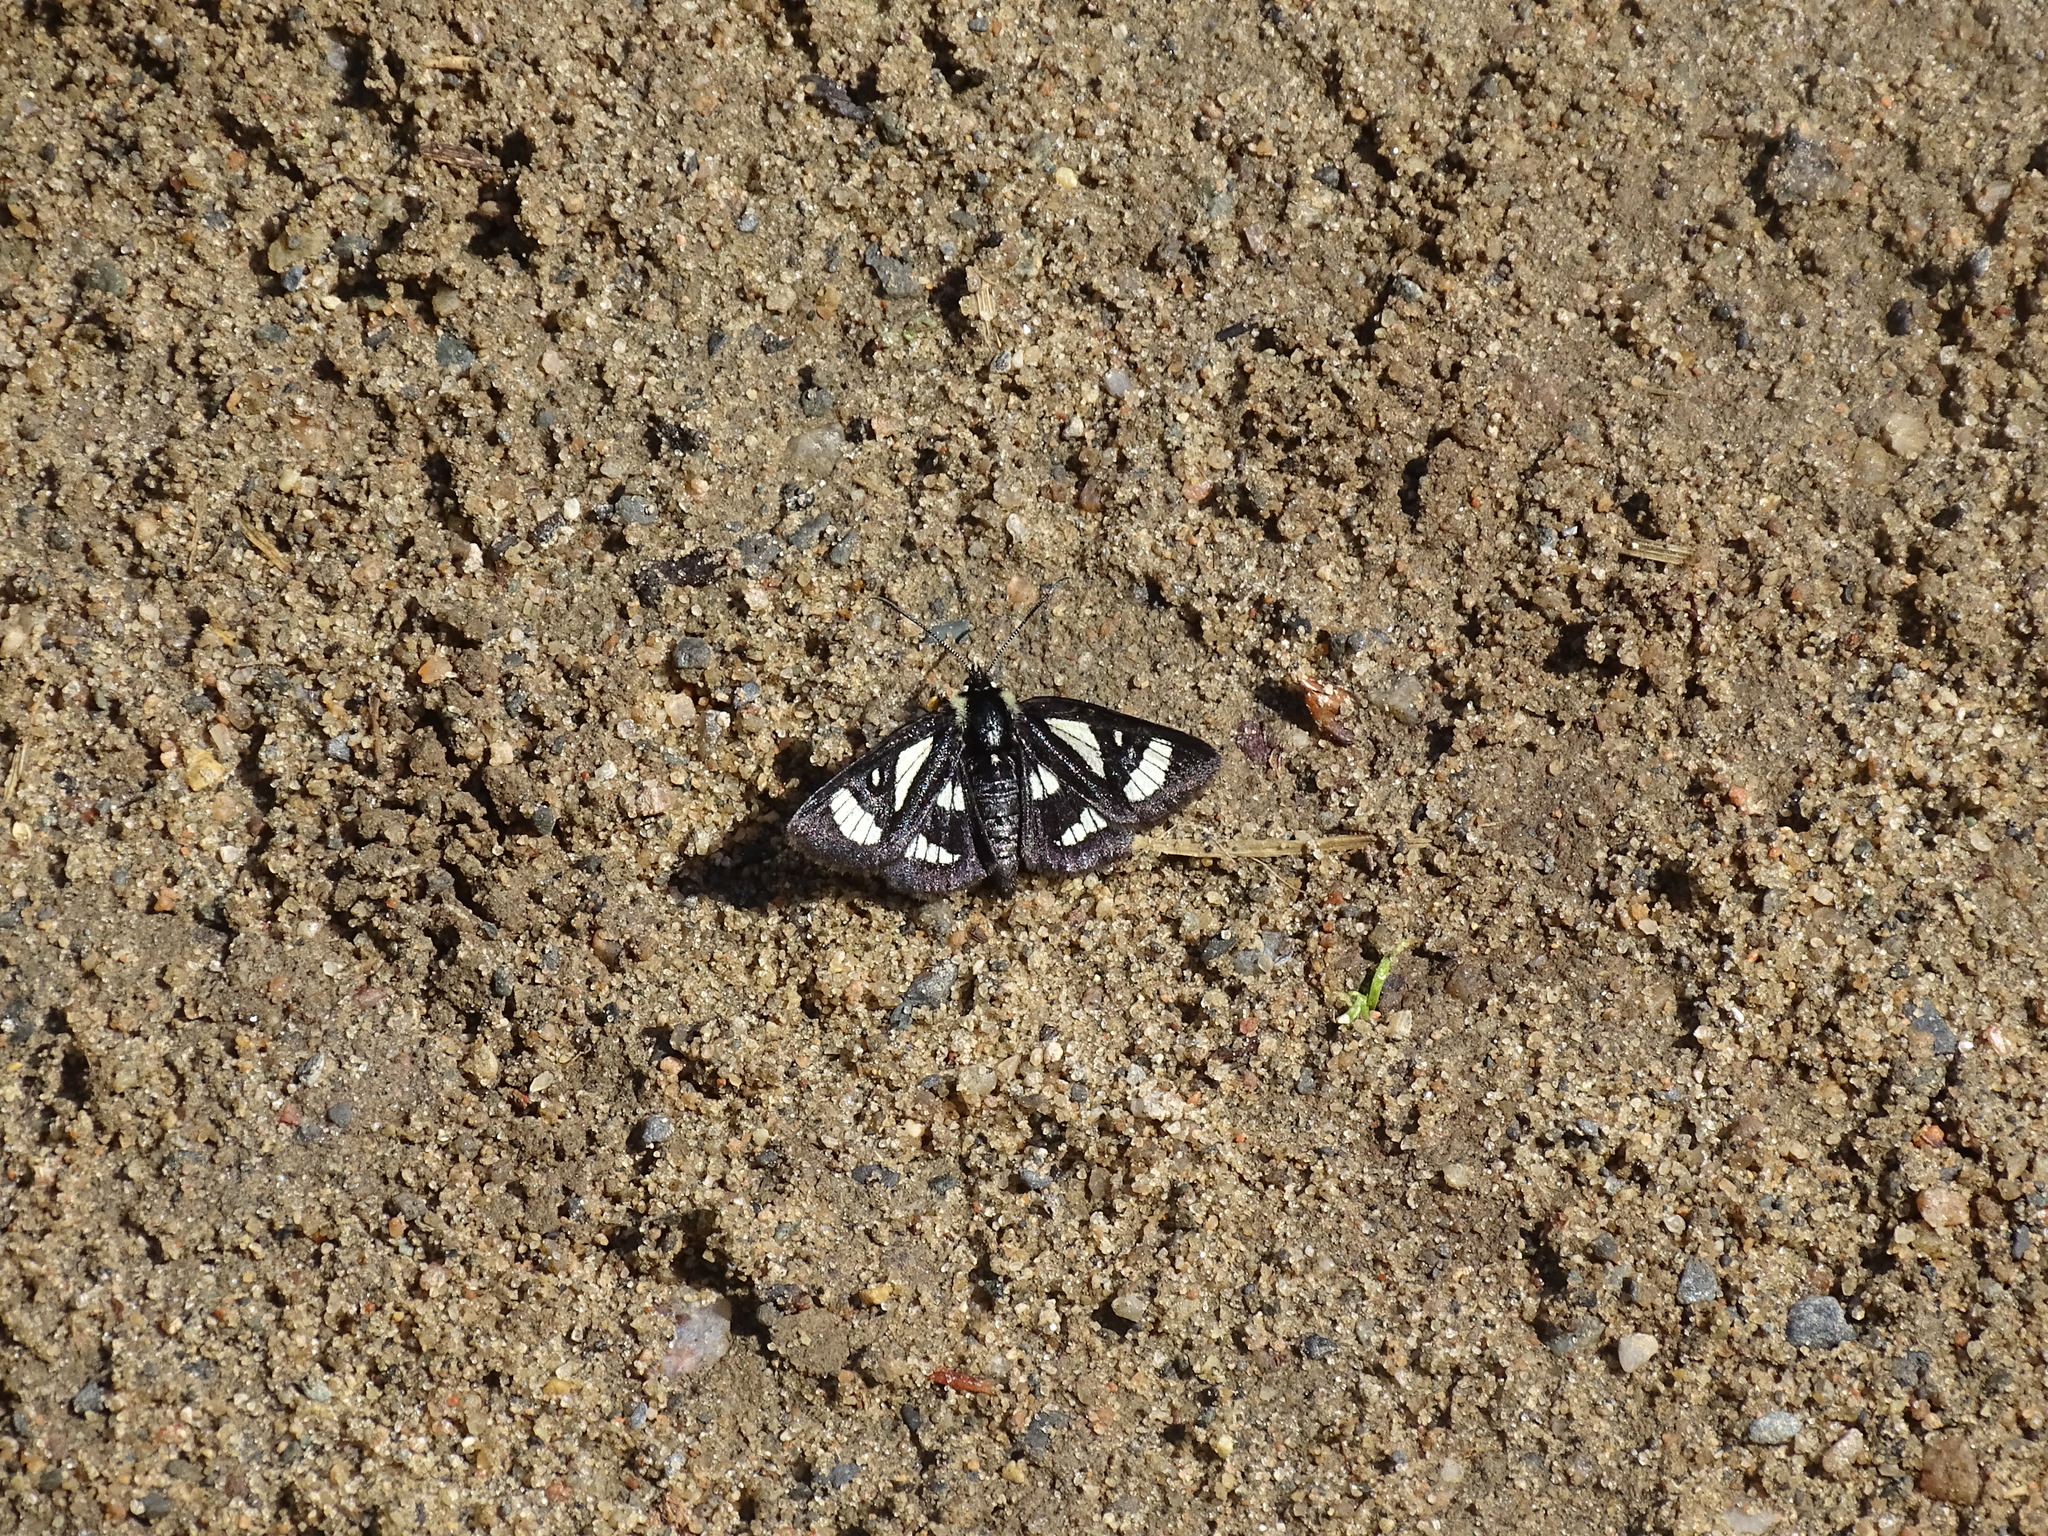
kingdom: Animalia
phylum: Arthropoda
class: Insecta
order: Lepidoptera
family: Noctuidae
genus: Alypia
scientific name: Alypia maccullochii
